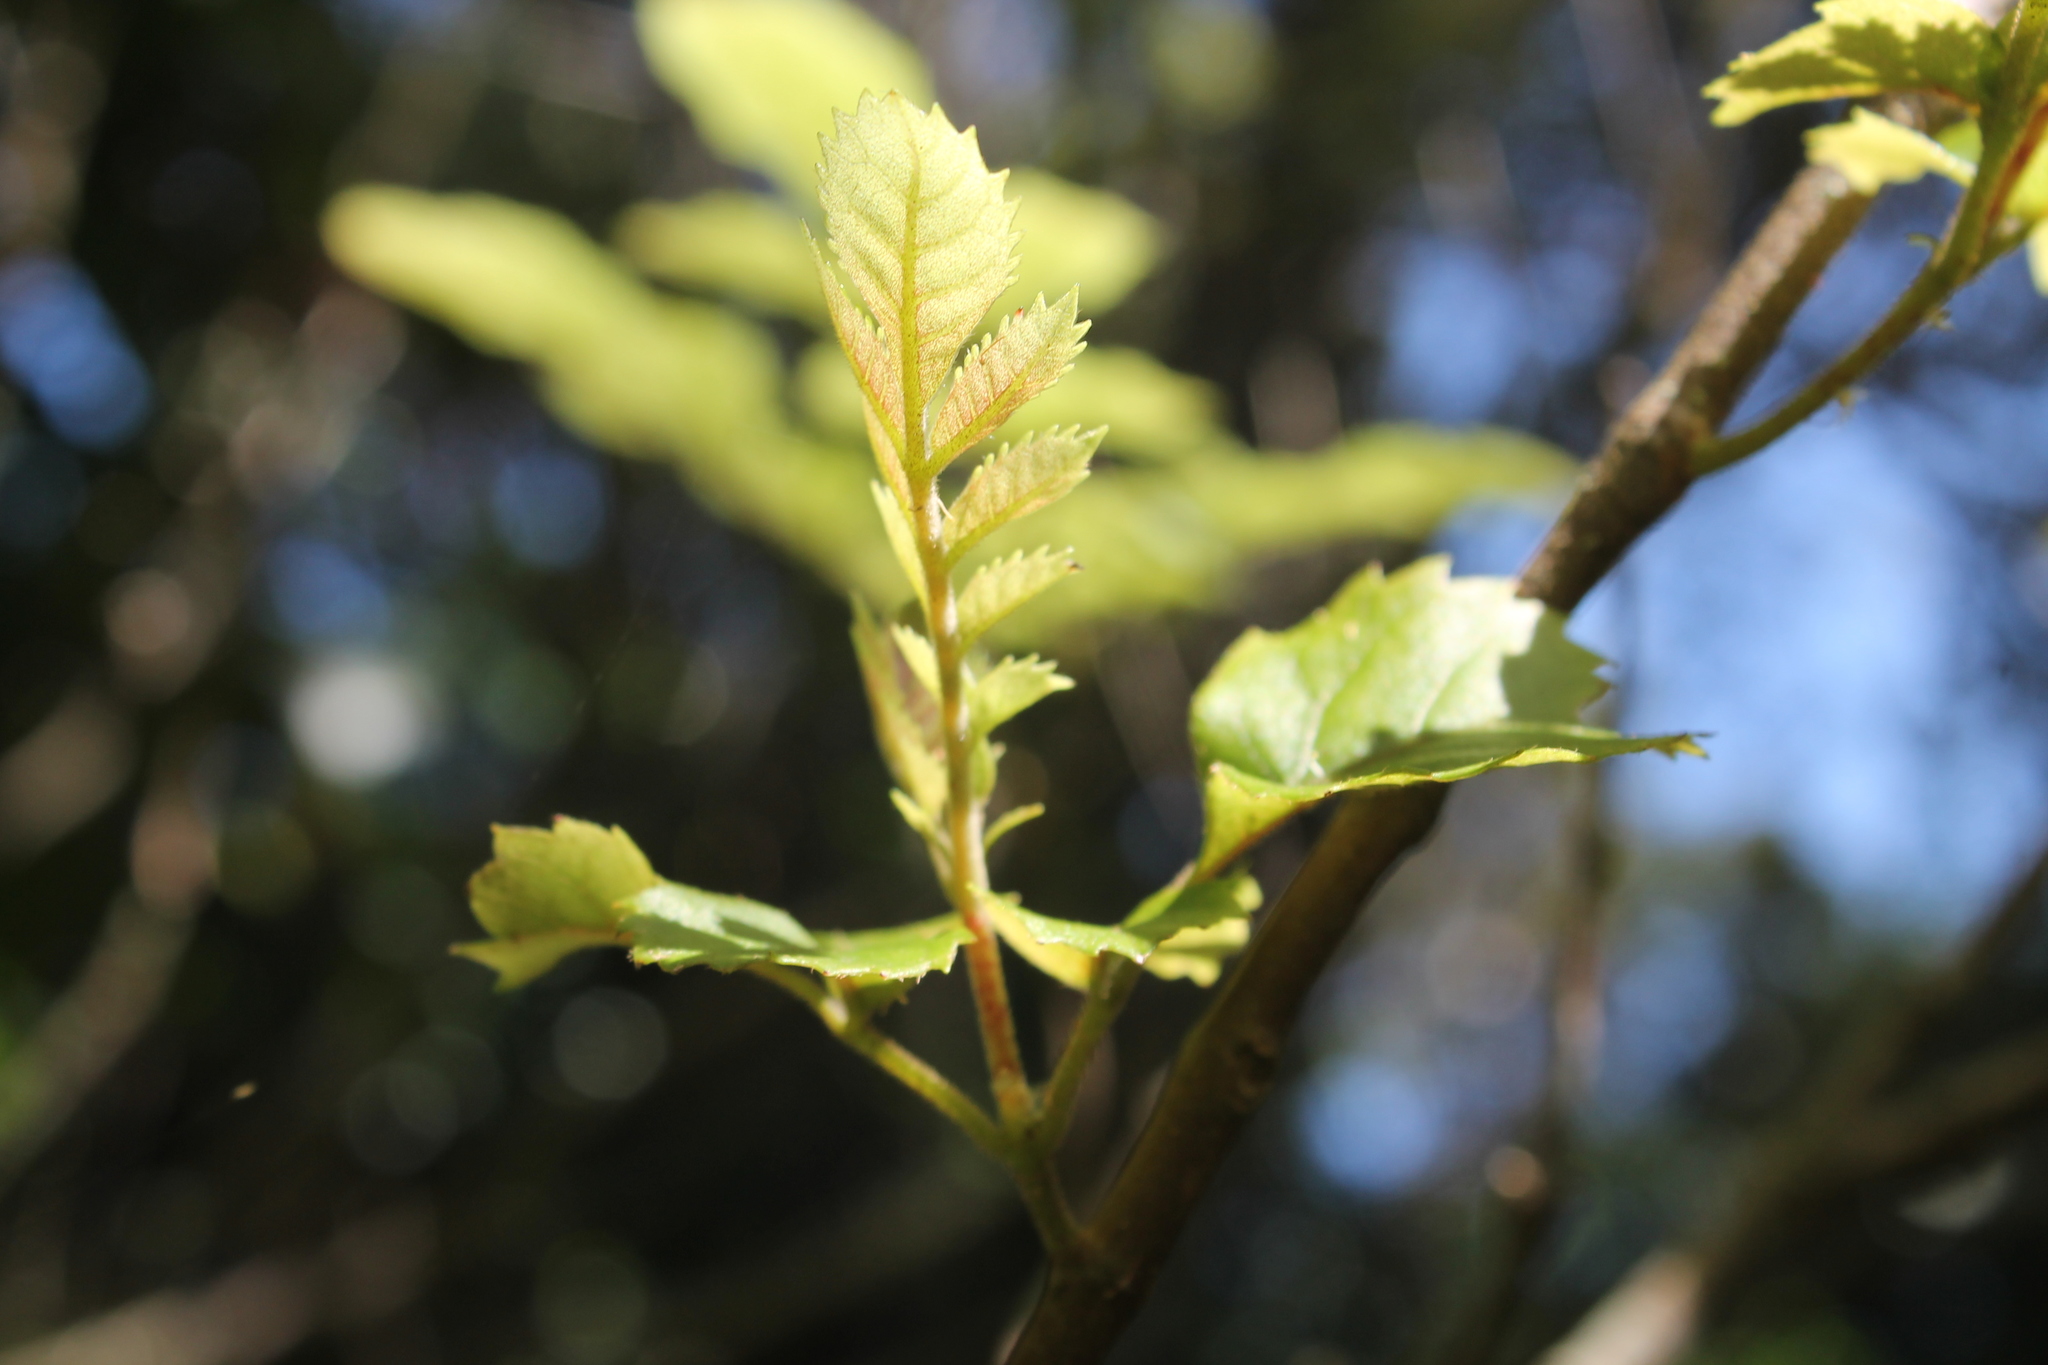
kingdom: Plantae
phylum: Tracheophyta
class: Magnoliopsida
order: Sapindales
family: Sapindaceae
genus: Alectryon
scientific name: Alectryon excelsus
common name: Three kings titoki
